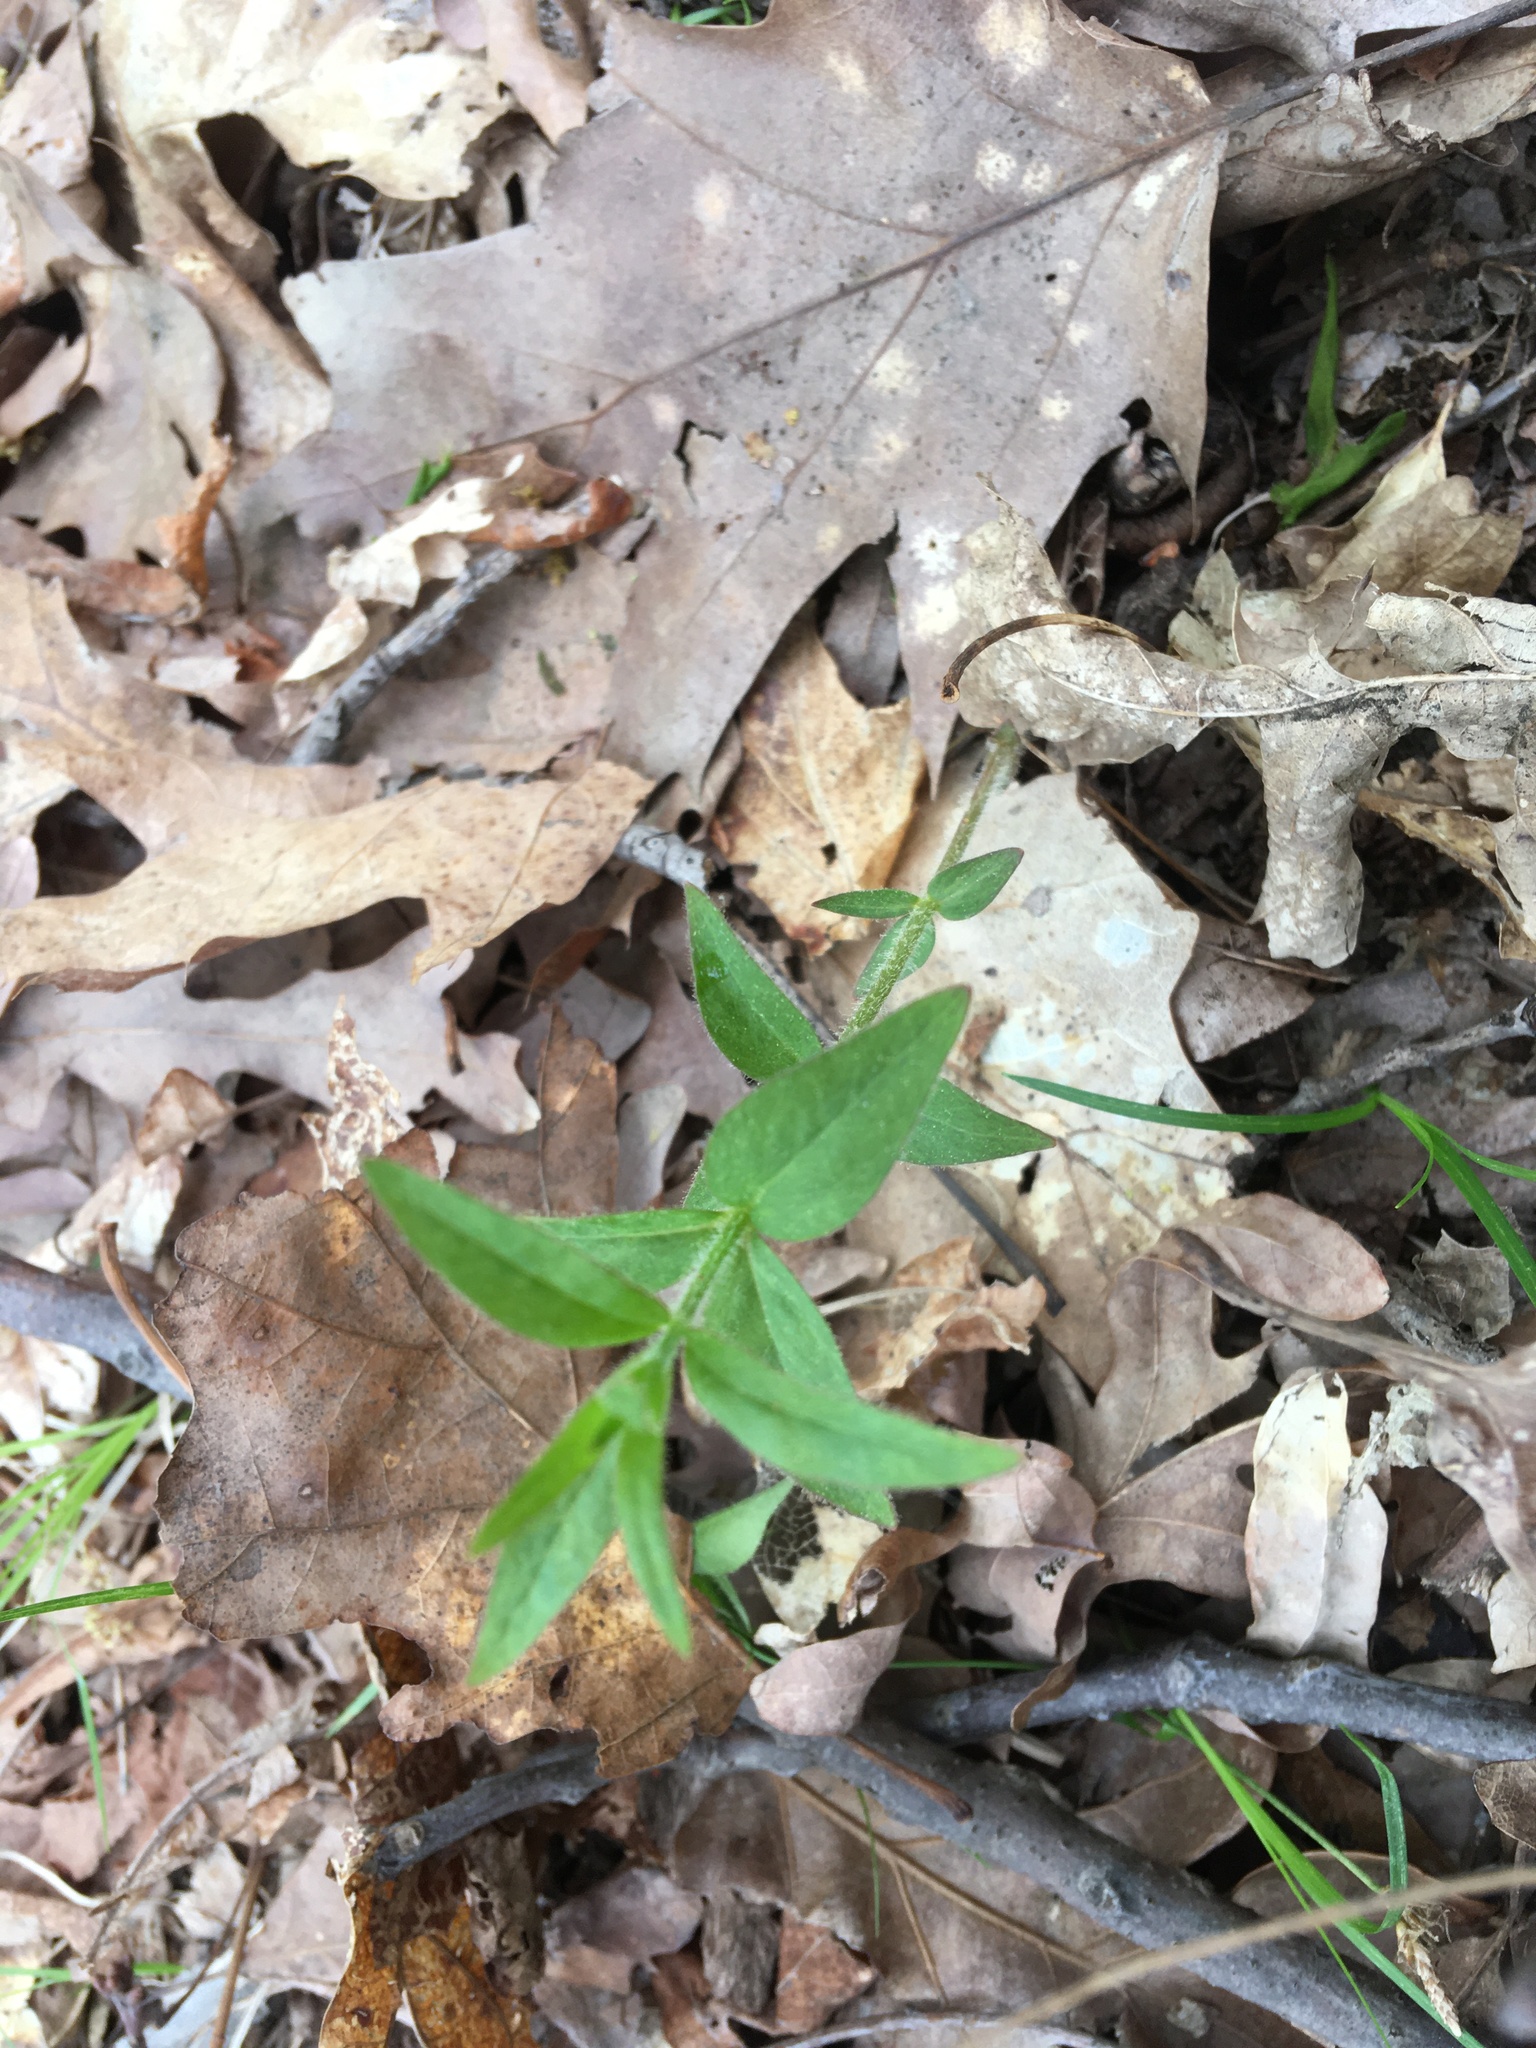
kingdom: Plantae
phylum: Tracheophyta
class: Magnoliopsida
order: Ericales
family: Primulaceae
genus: Lysimachia
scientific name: Lysimachia quadrifolia
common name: Whorled loosestrife
